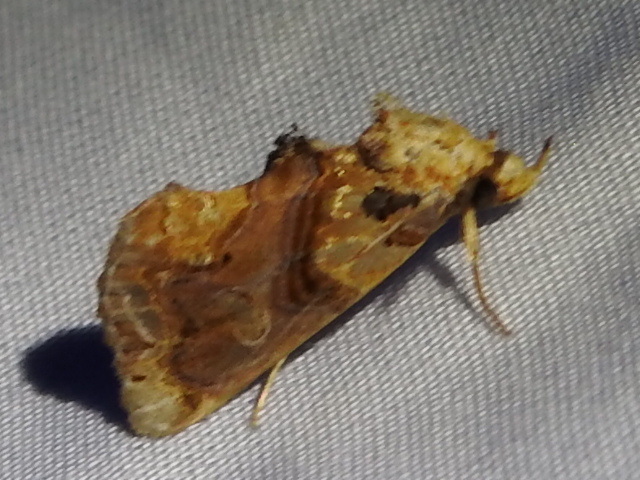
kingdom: Animalia
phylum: Arthropoda
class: Insecta
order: Lepidoptera
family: Erebidae
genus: Plusiodonta
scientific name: Plusiodonta compressipalpis
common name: Moonseed moth
